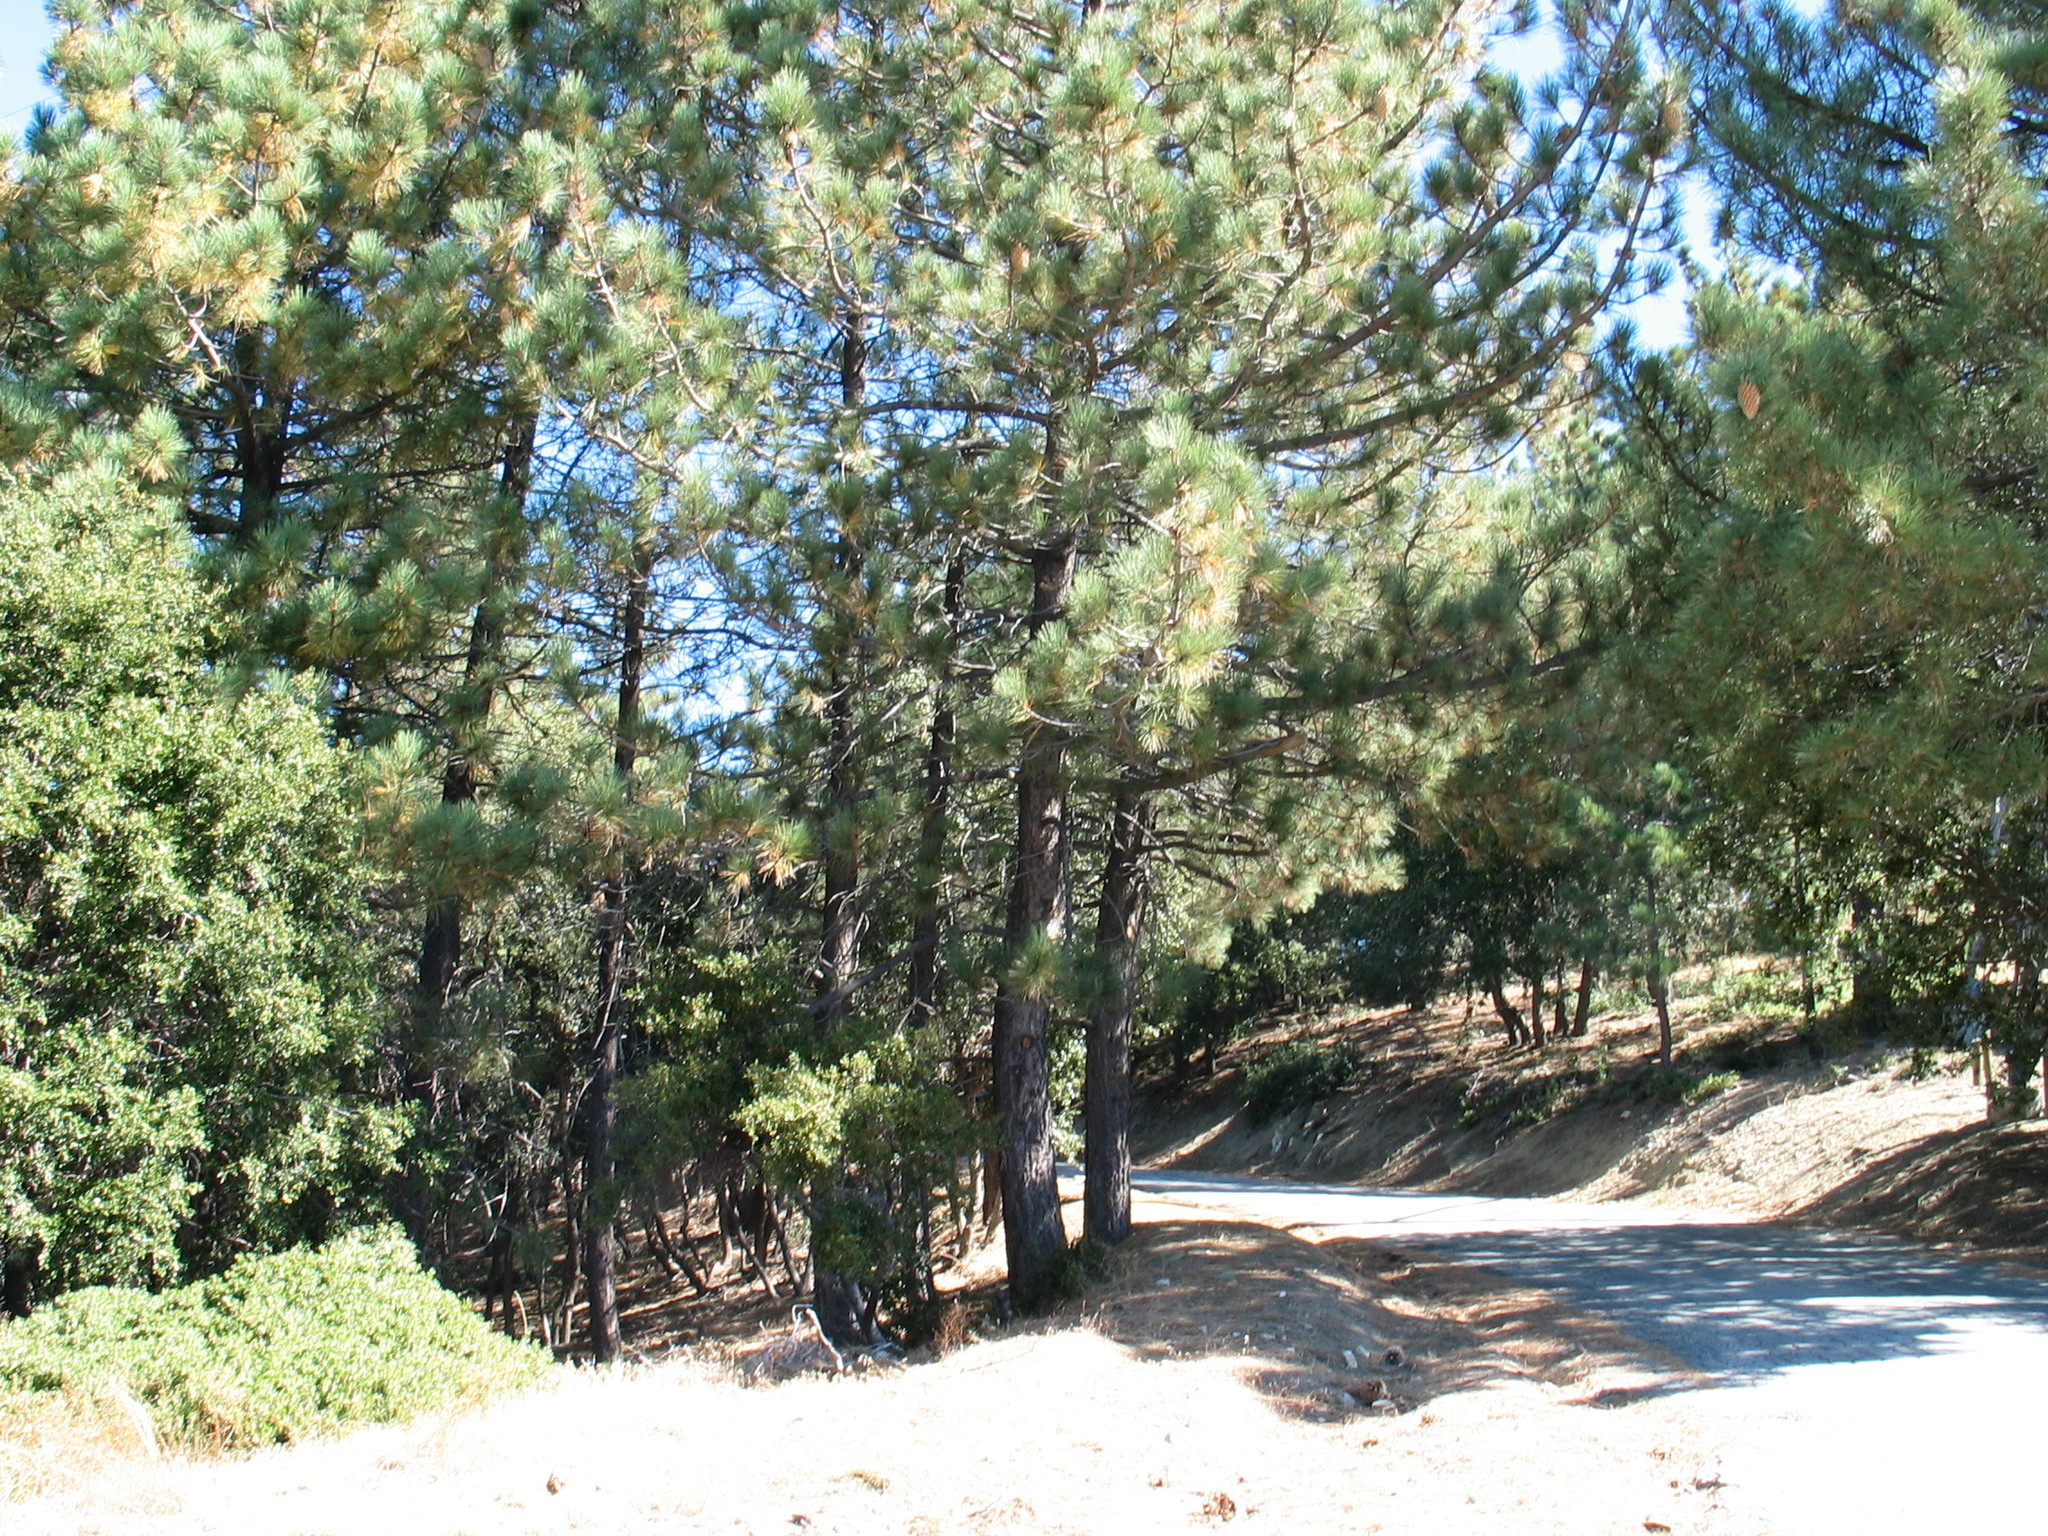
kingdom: Plantae
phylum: Tracheophyta
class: Magnoliopsida
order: Fagales
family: Fagaceae
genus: Quercus
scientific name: Quercus chrysolepis
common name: Canyon live oak
